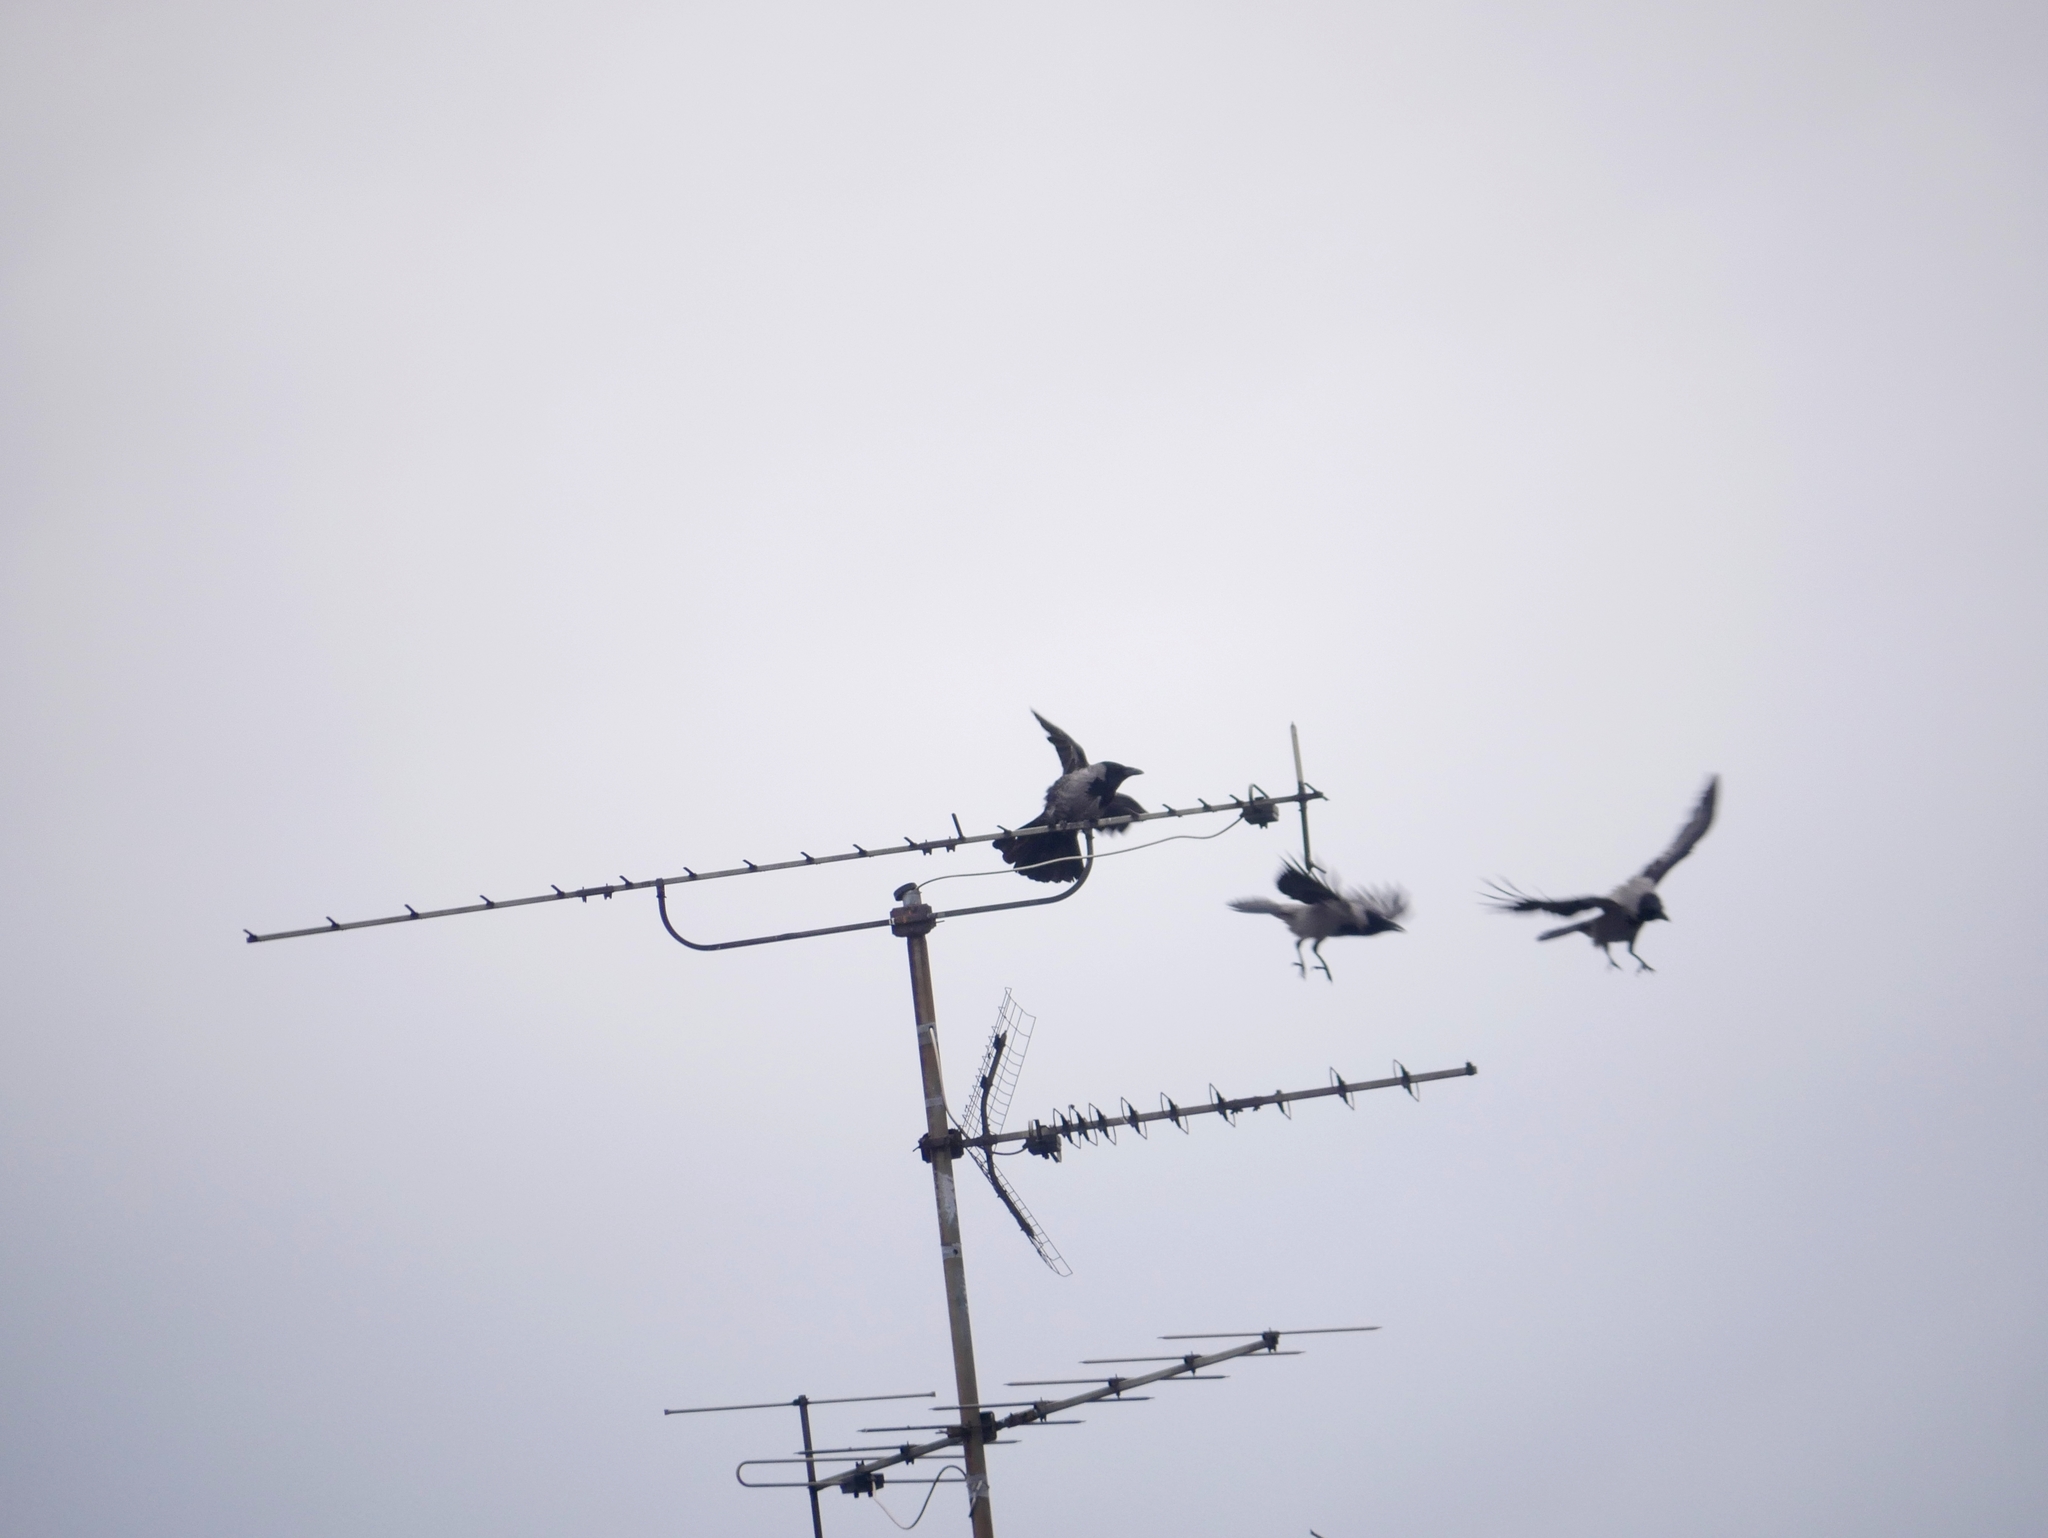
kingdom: Animalia
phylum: Chordata
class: Aves
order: Passeriformes
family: Corvidae
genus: Corvus
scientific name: Corvus cornix
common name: Hooded crow
